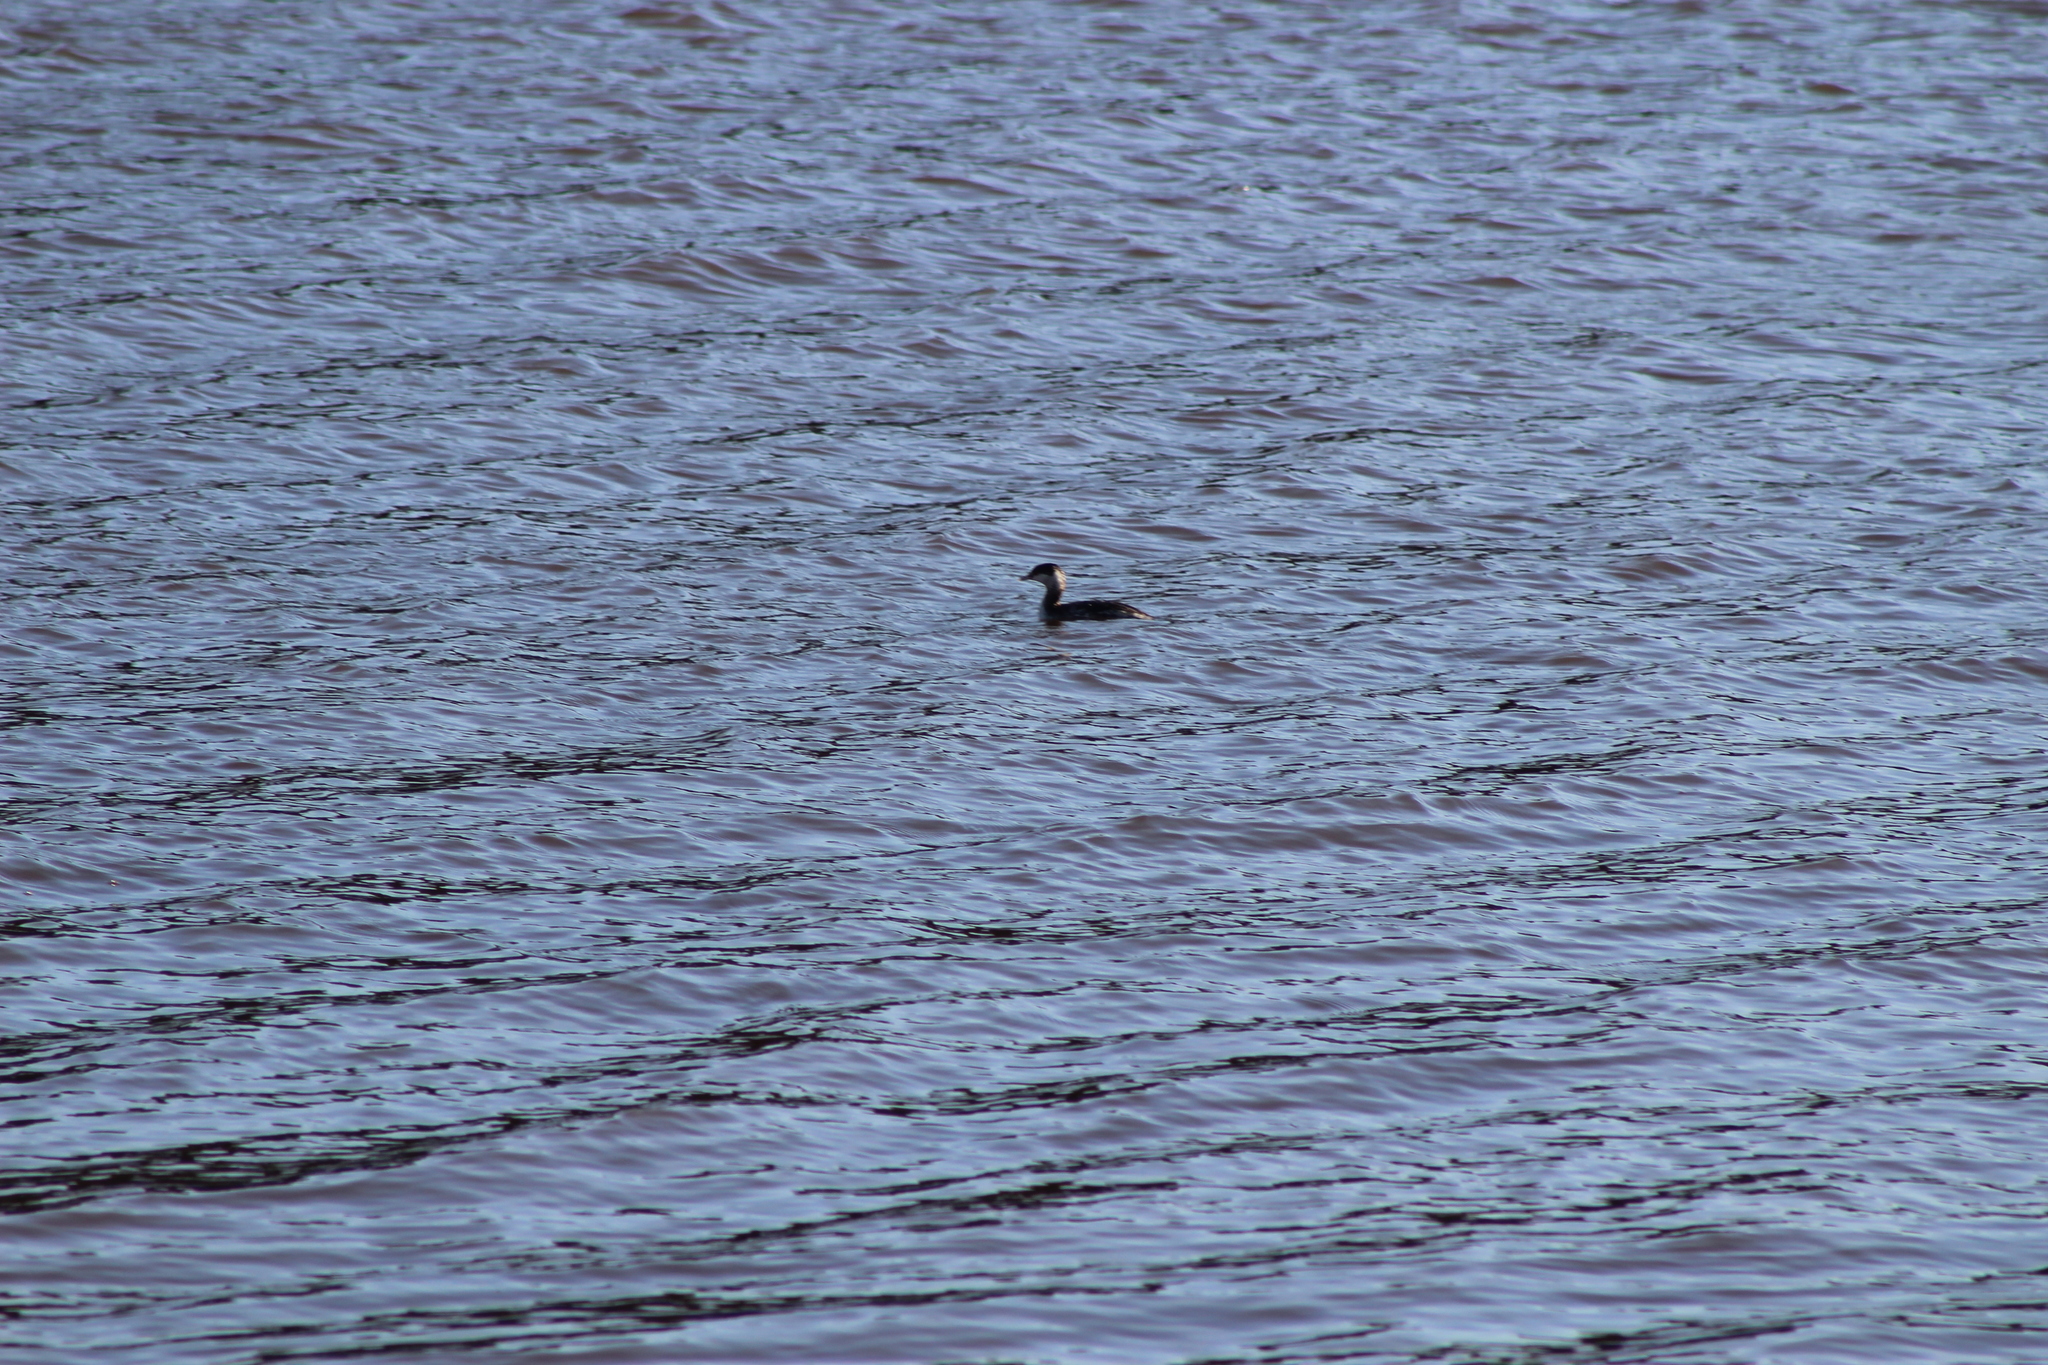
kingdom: Animalia
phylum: Chordata
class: Aves
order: Podicipediformes
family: Podicipedidae
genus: Podiceps
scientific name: Podiceps auritus
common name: Horned grebe
